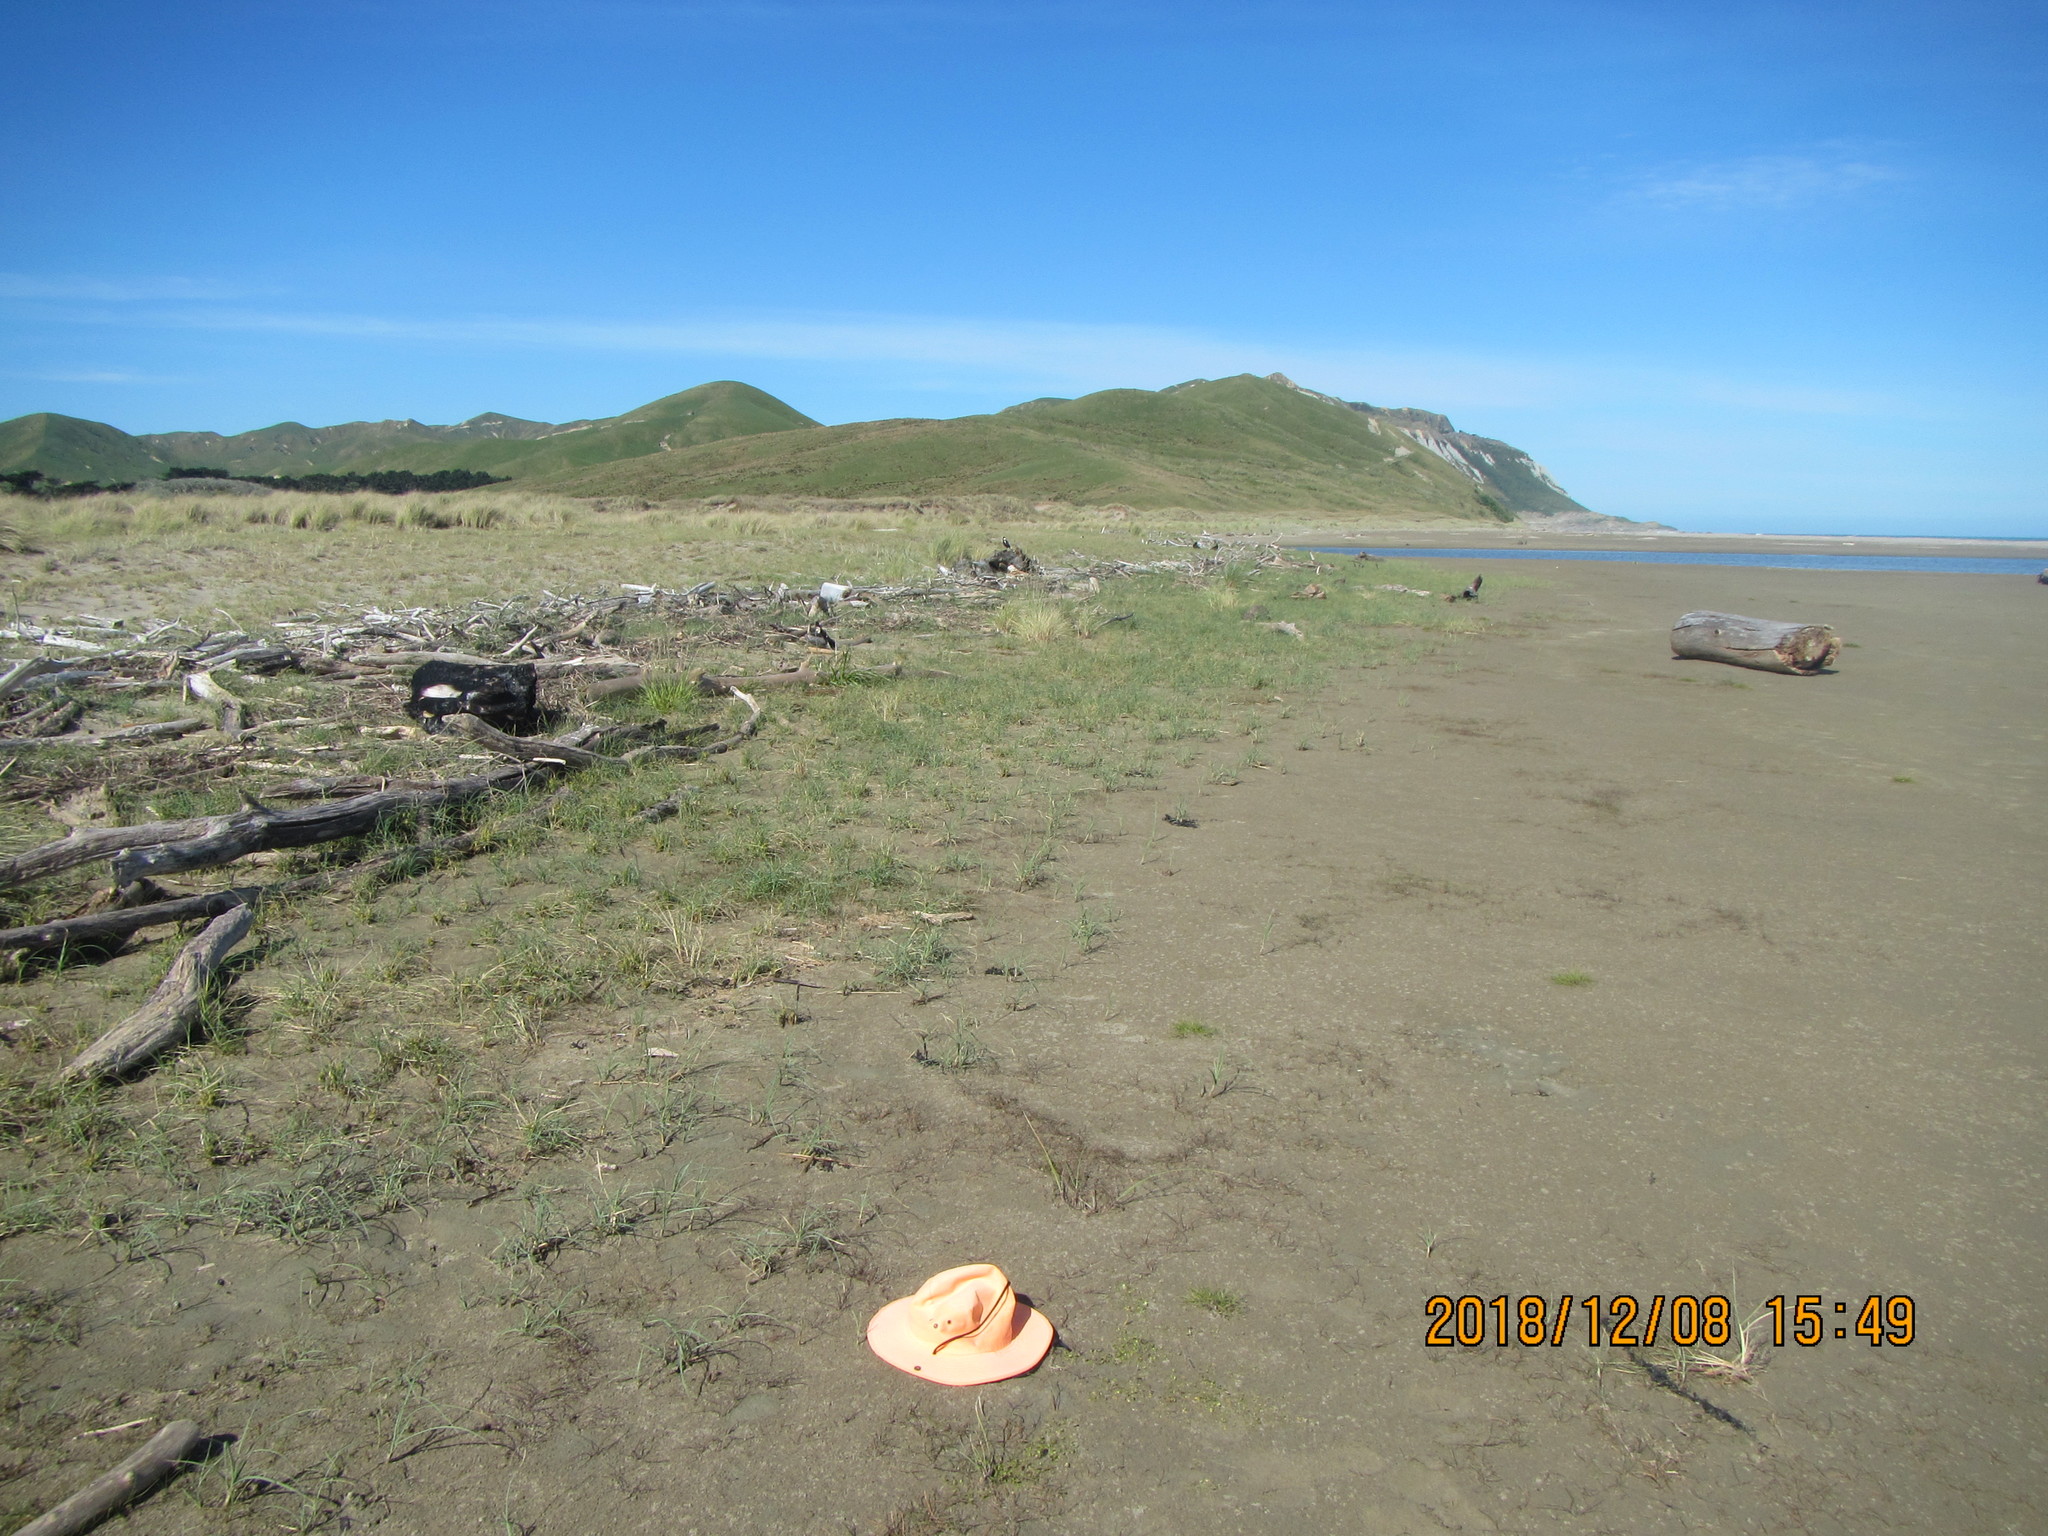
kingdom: Animalia
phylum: Chordata
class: Aves
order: Passeriformes
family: Cracticidae
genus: Gymnorhina
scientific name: Gymnorhina tibicen
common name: Australian magpie
